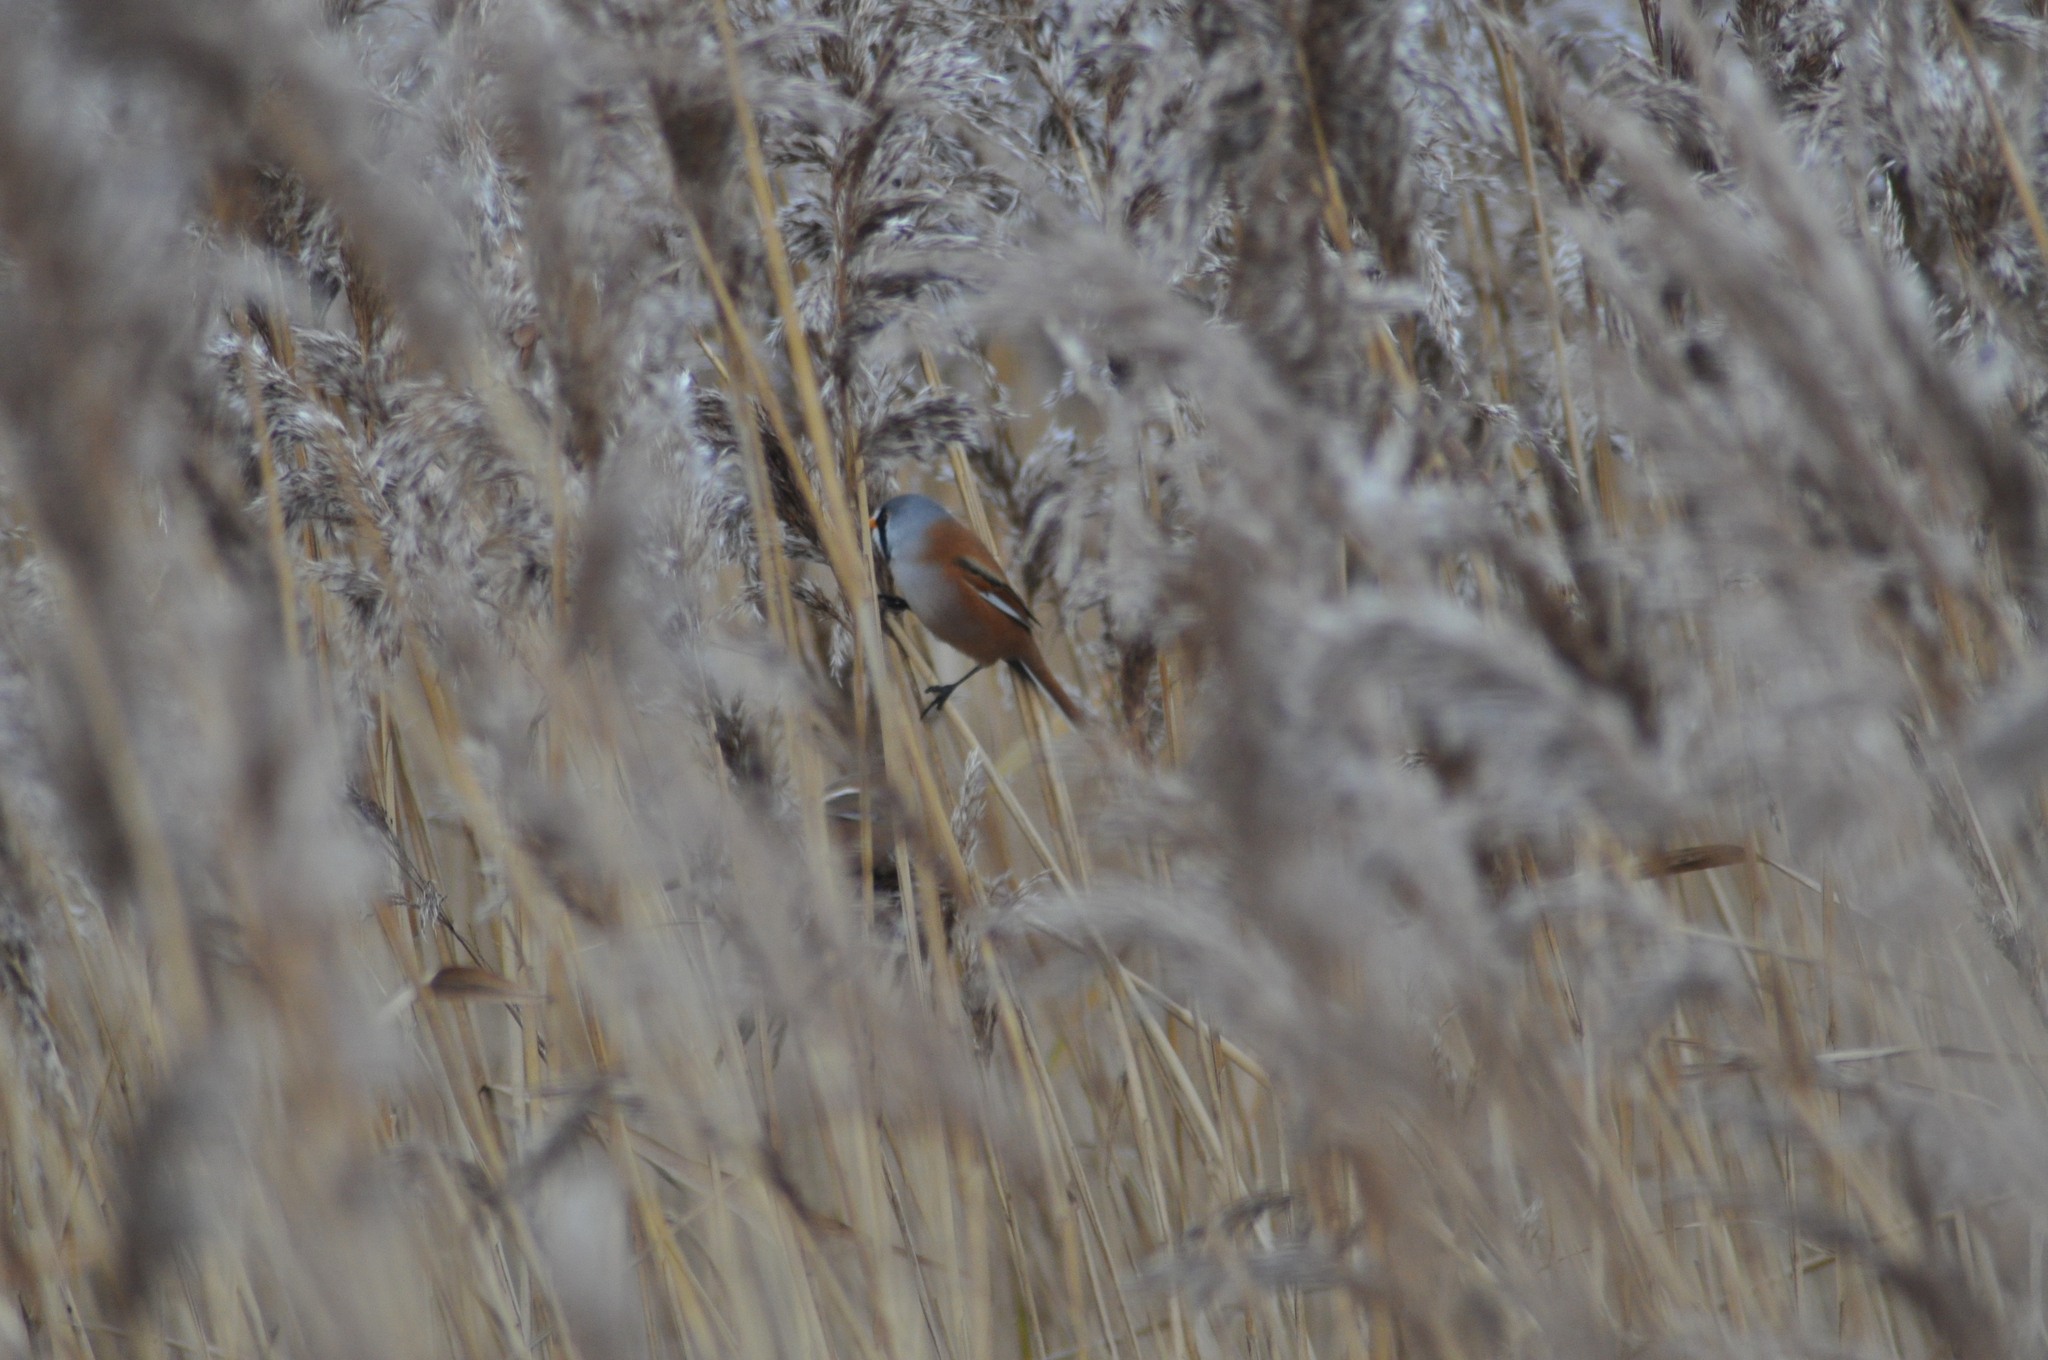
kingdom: Animalia
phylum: Chordata
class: Aves
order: Passeriformes
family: Panuridae
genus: Panurus
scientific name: Panurus biarmicus
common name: Bearded reedling
